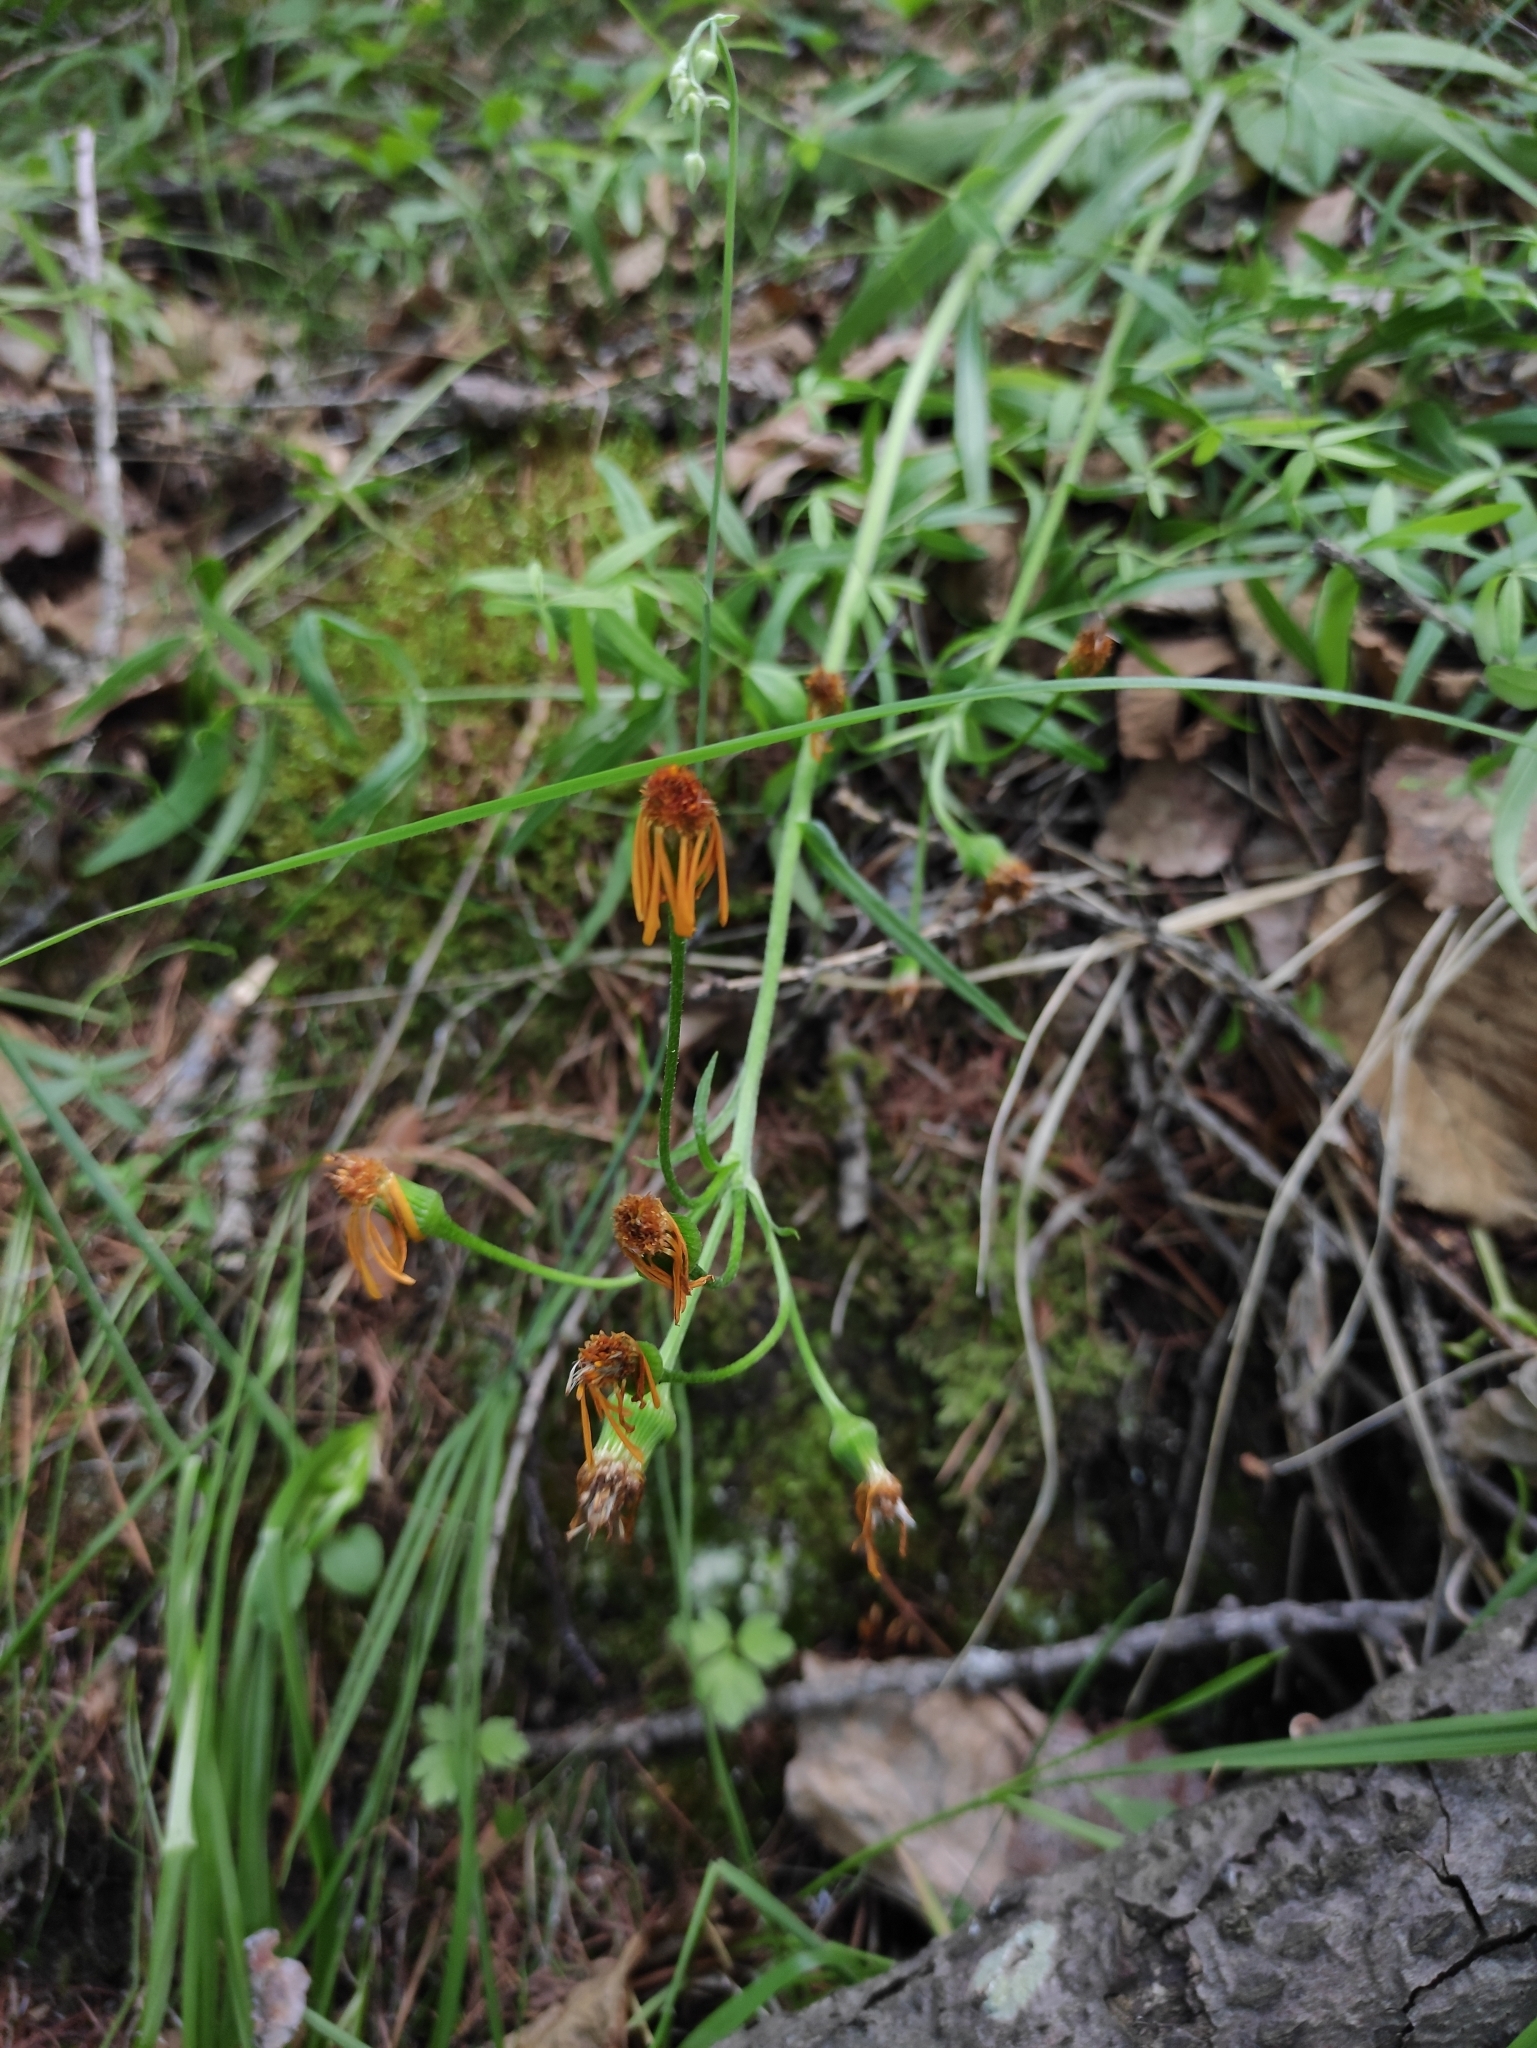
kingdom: Plantae
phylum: Tracheophyta
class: Magnoliopsida
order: Asterales
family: Asteraceae
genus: Tephroseris
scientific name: Tephroseris porphyrantha
